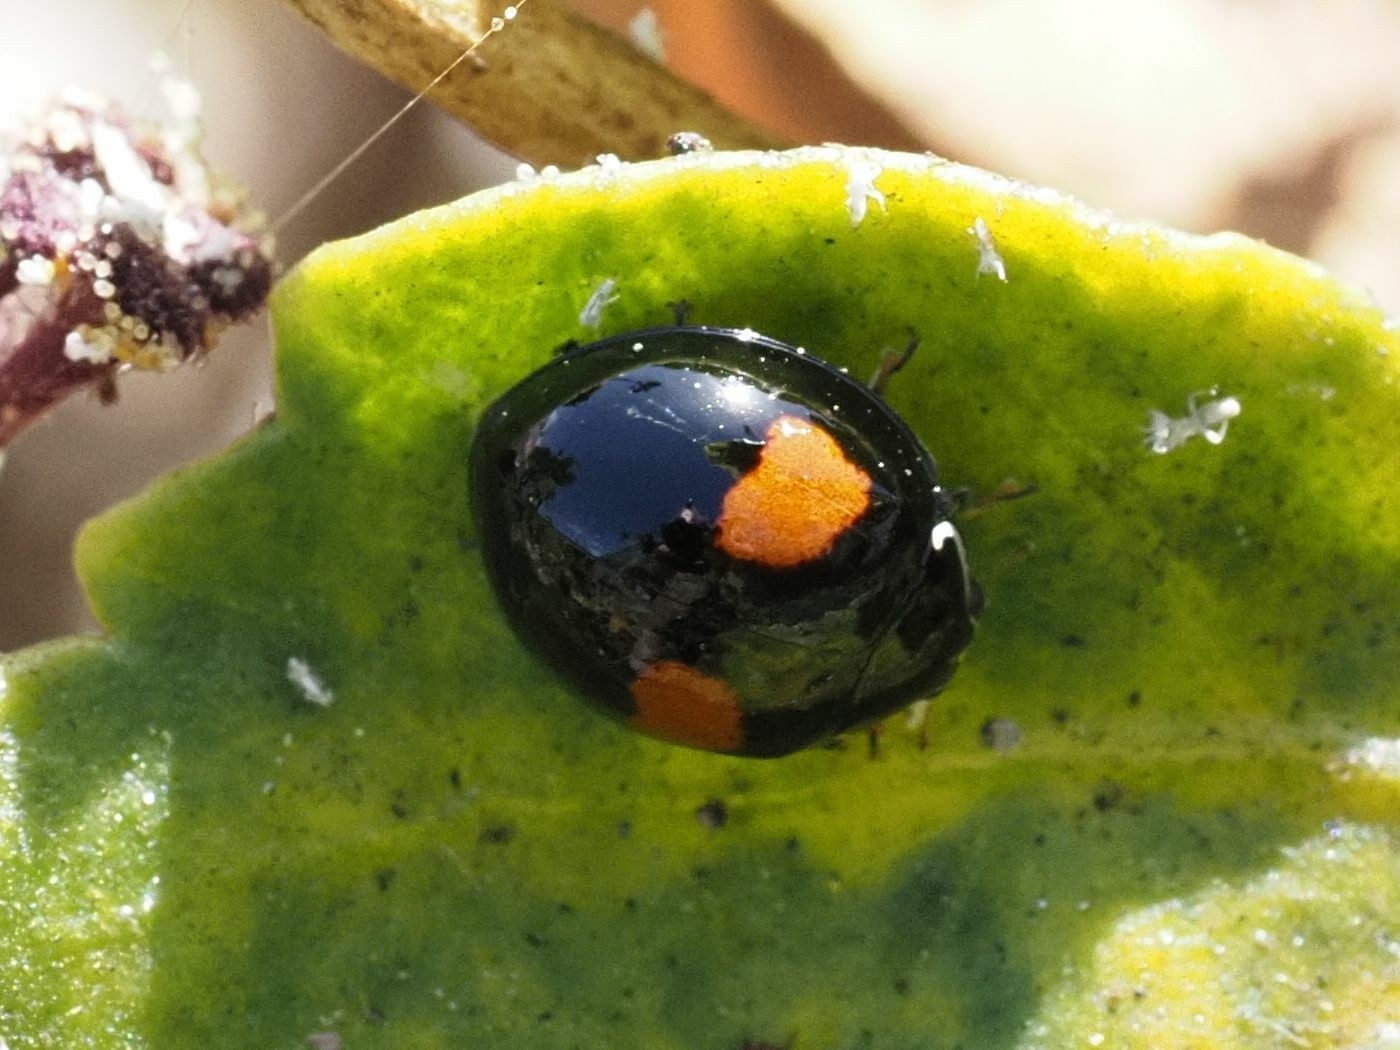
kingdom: Animalia
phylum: Arthropoda
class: Insecta
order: Coleoptera
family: Coccinellidae
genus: Olla
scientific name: Olla v-nigrum
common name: Ashy gray lady beetle
